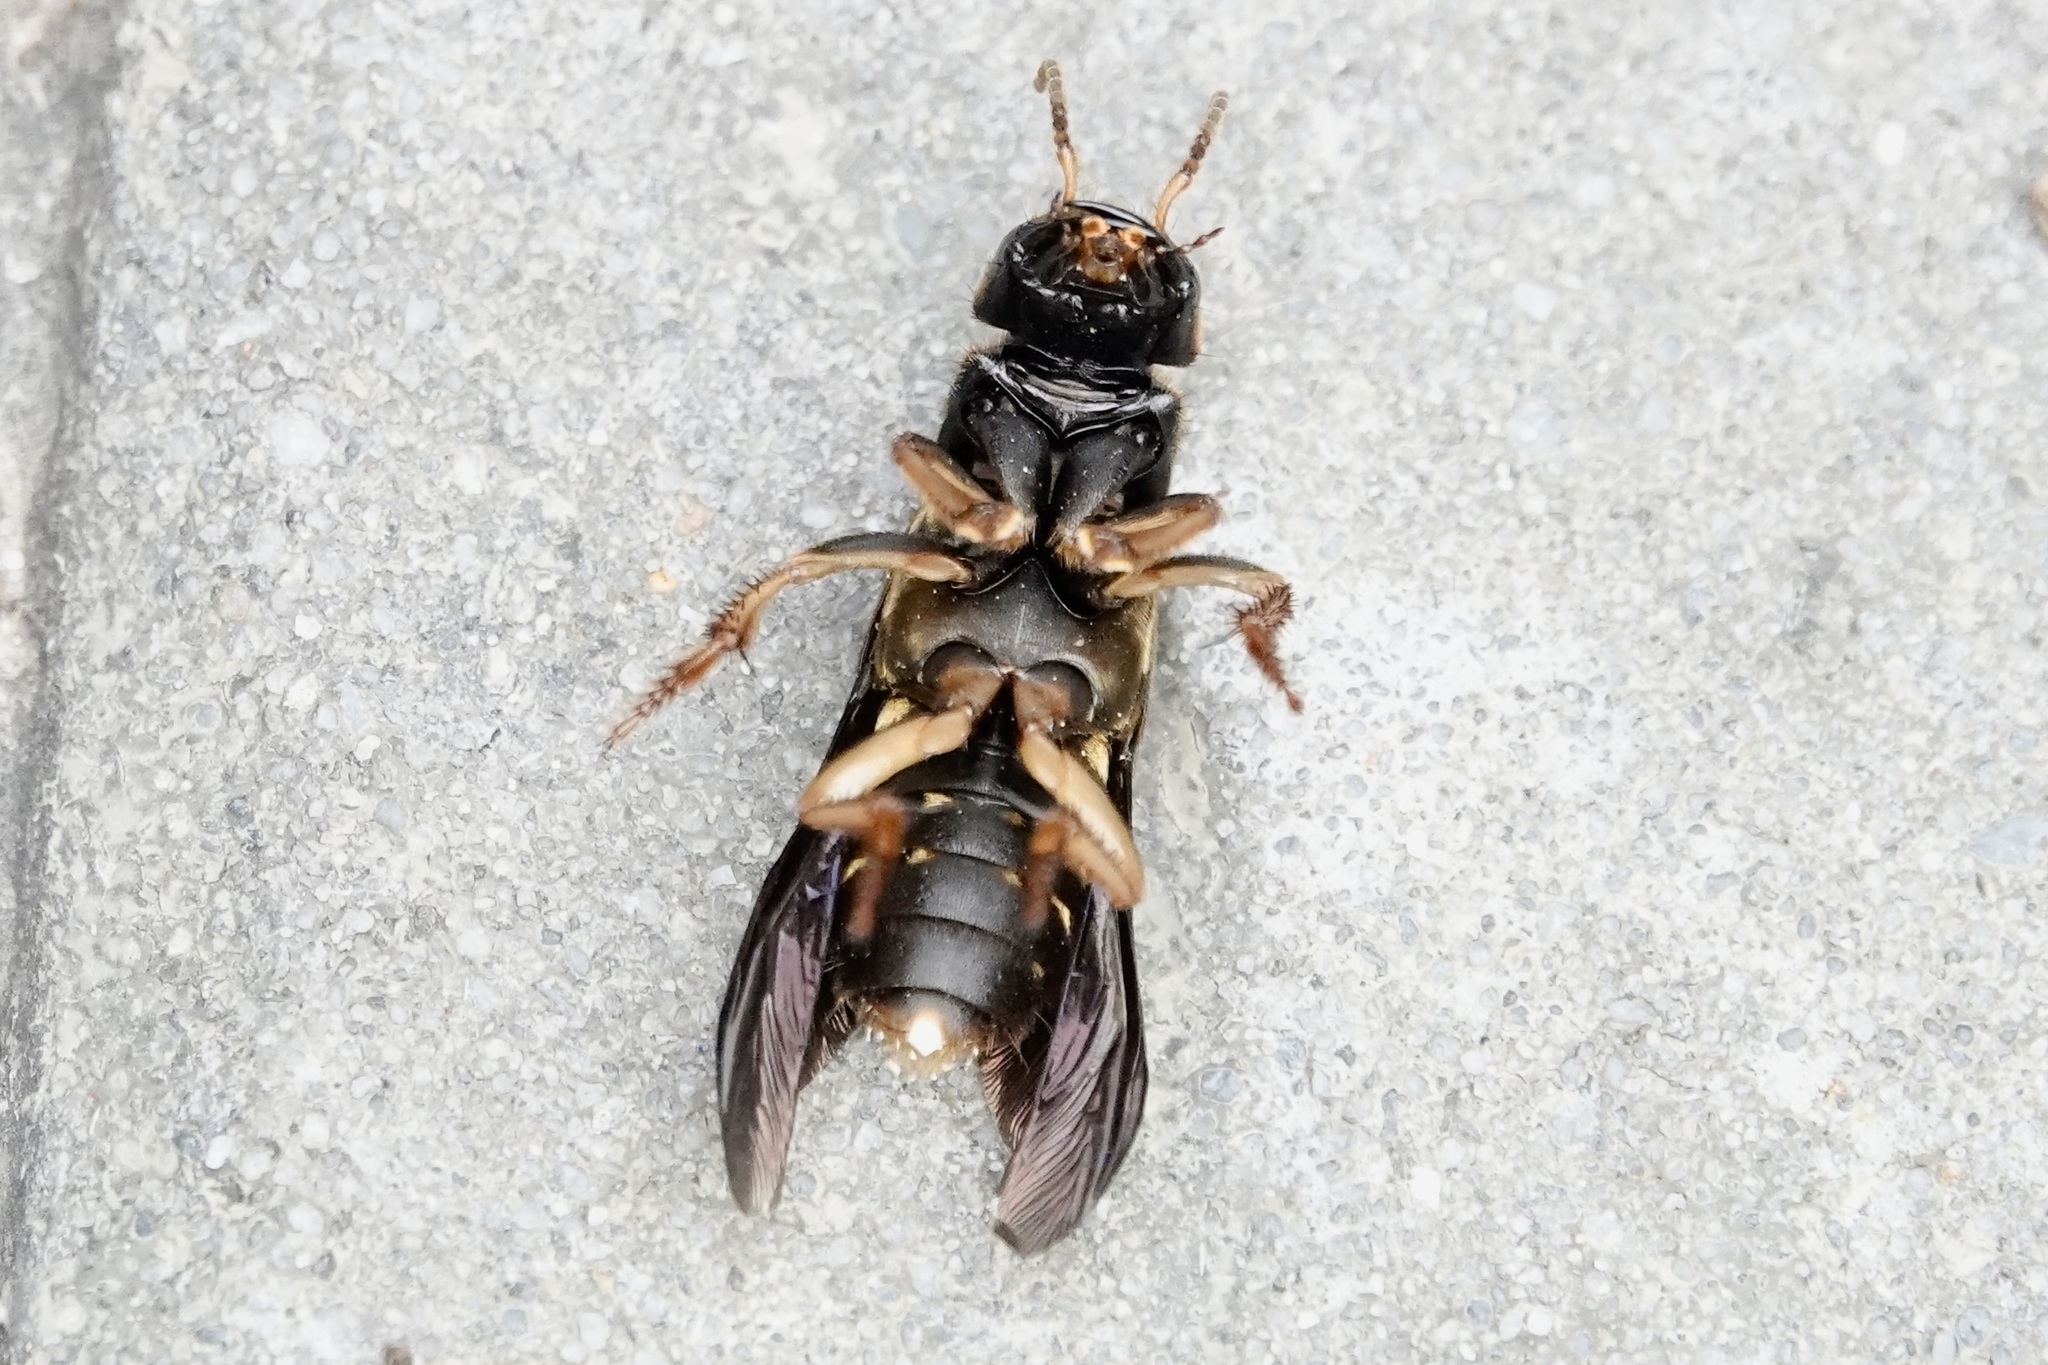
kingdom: Animalia
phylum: Arthropoda
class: Insecta
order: Coleoptera
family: Staphylinidae
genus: Platydracus
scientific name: Platydracus maculosus
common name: Brown rove beetle
